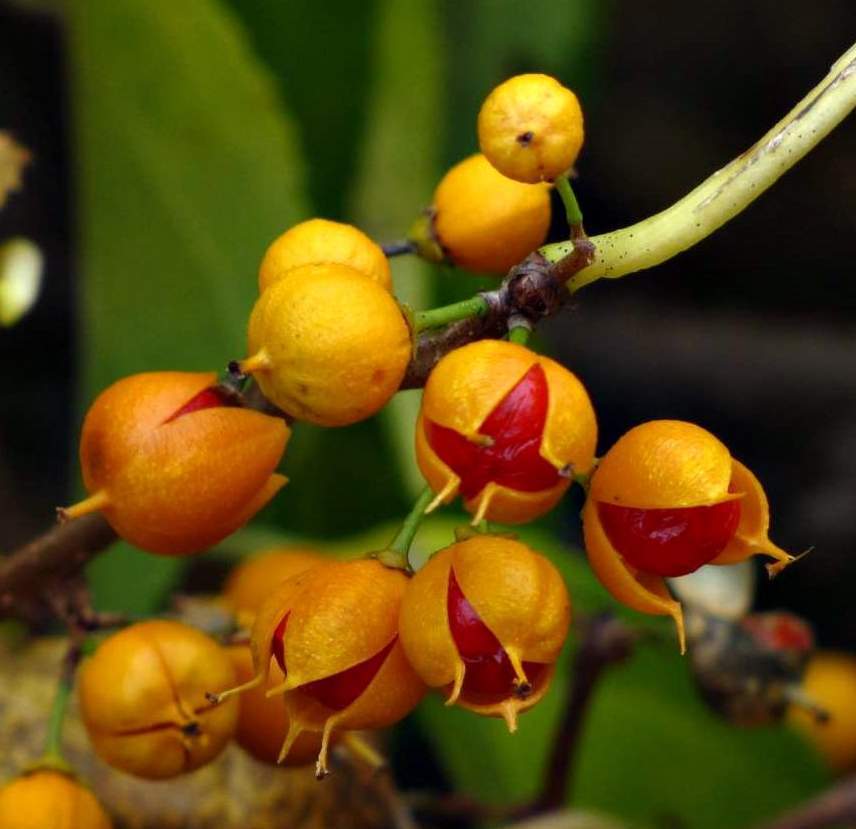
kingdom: Plantae
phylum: Tracheophyta
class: Magnoliopsida
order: Celastrales
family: Celastraceae
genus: Celastrus
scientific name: Celastrus orbiculatus
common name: Oriental bittersweet
